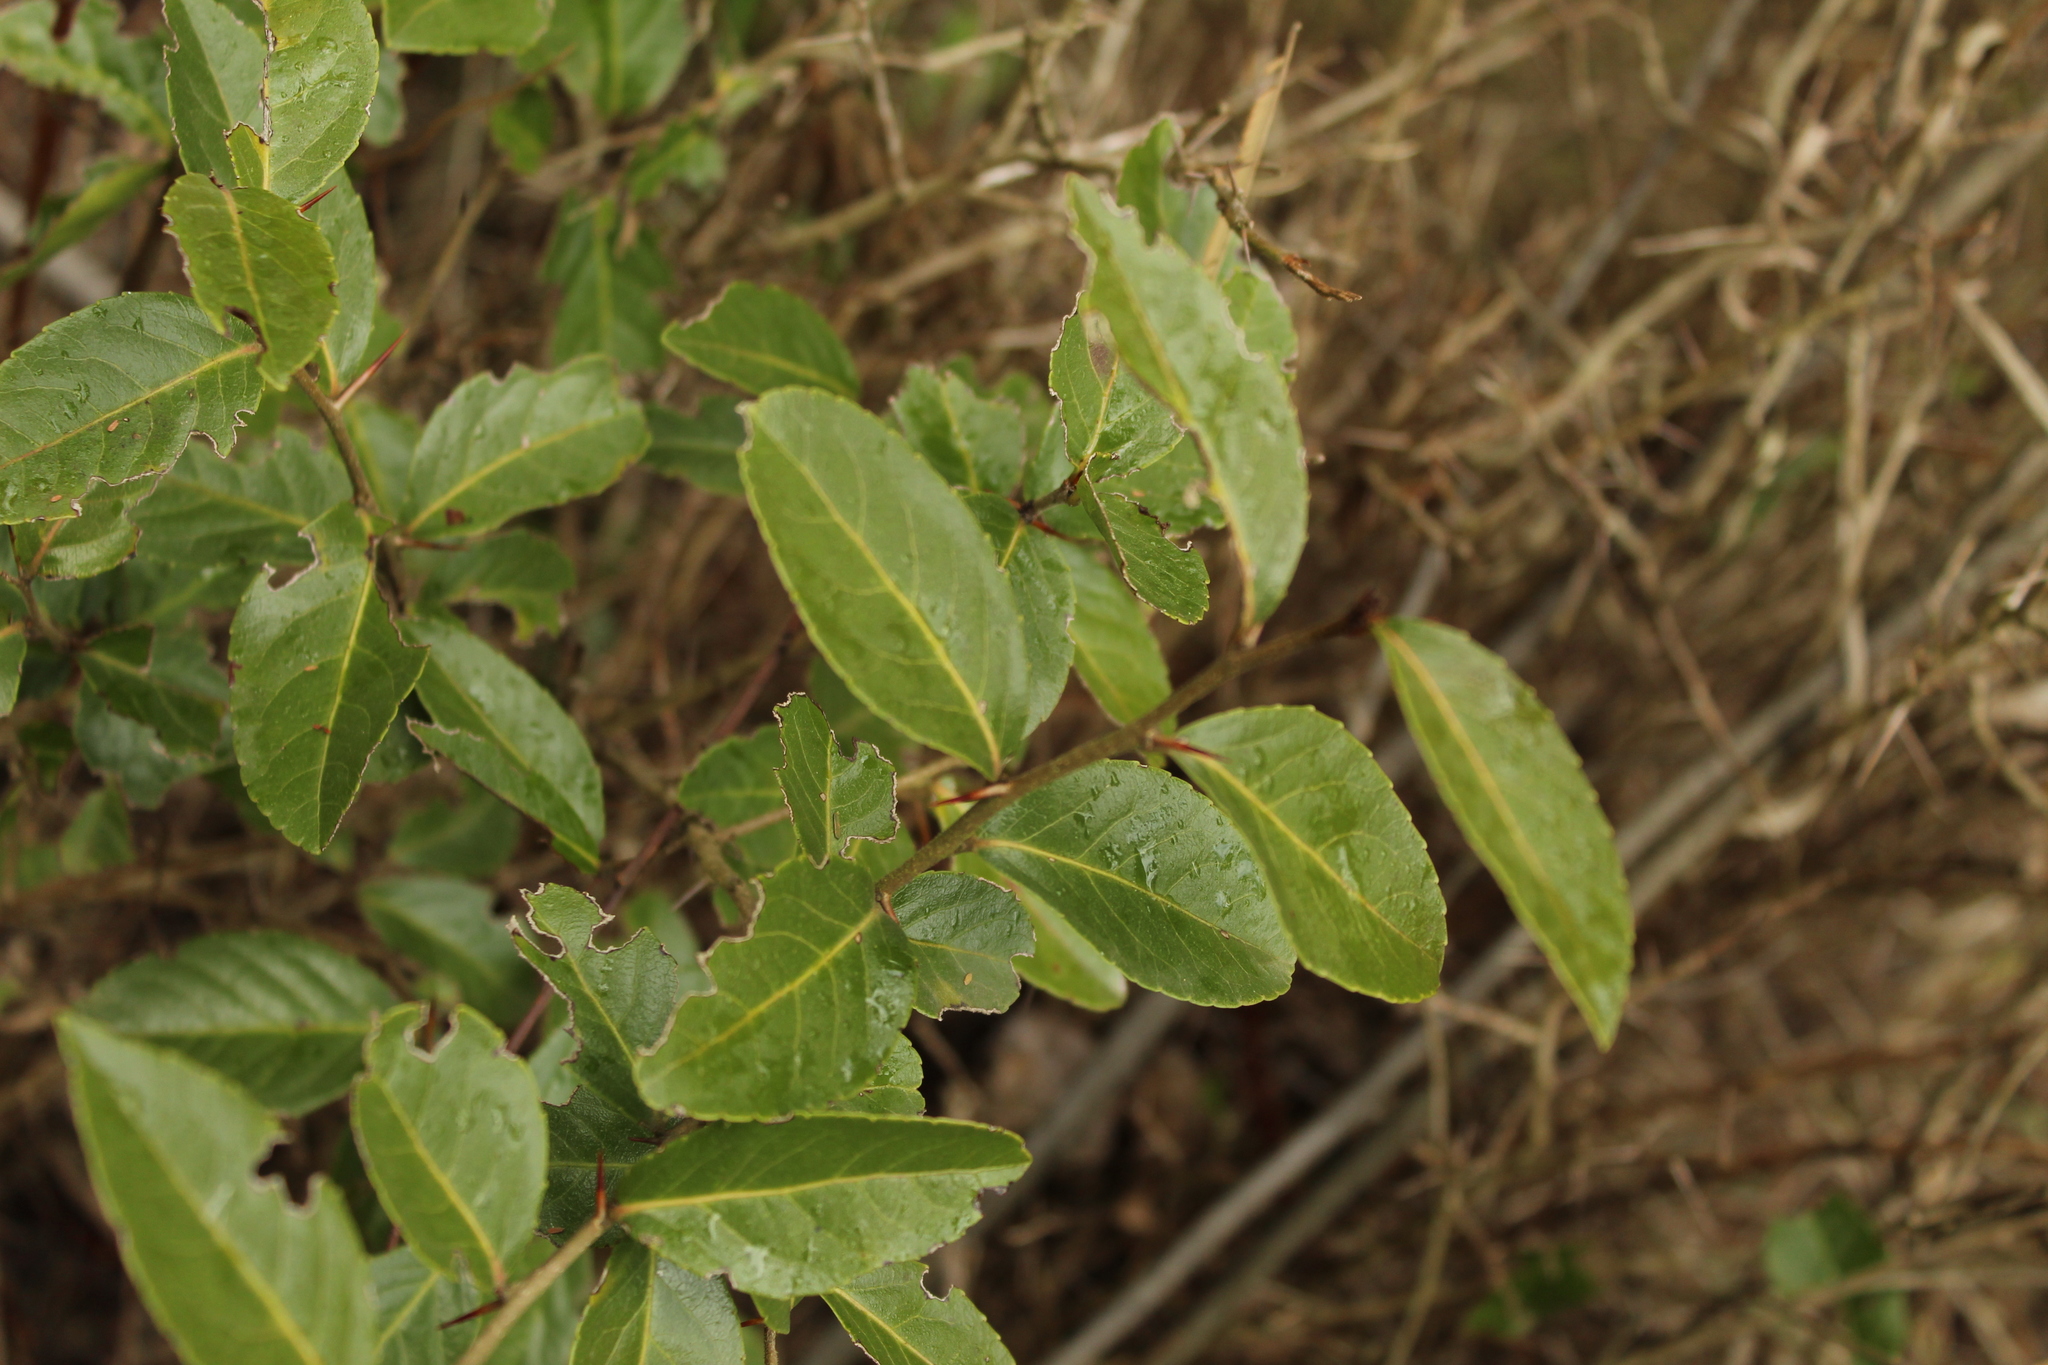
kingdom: Plantae
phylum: Tracheophyta
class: Magnoliopsida
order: Malpighiales
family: Salicaceae
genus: Xylosma
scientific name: Xylosma spiculifera
